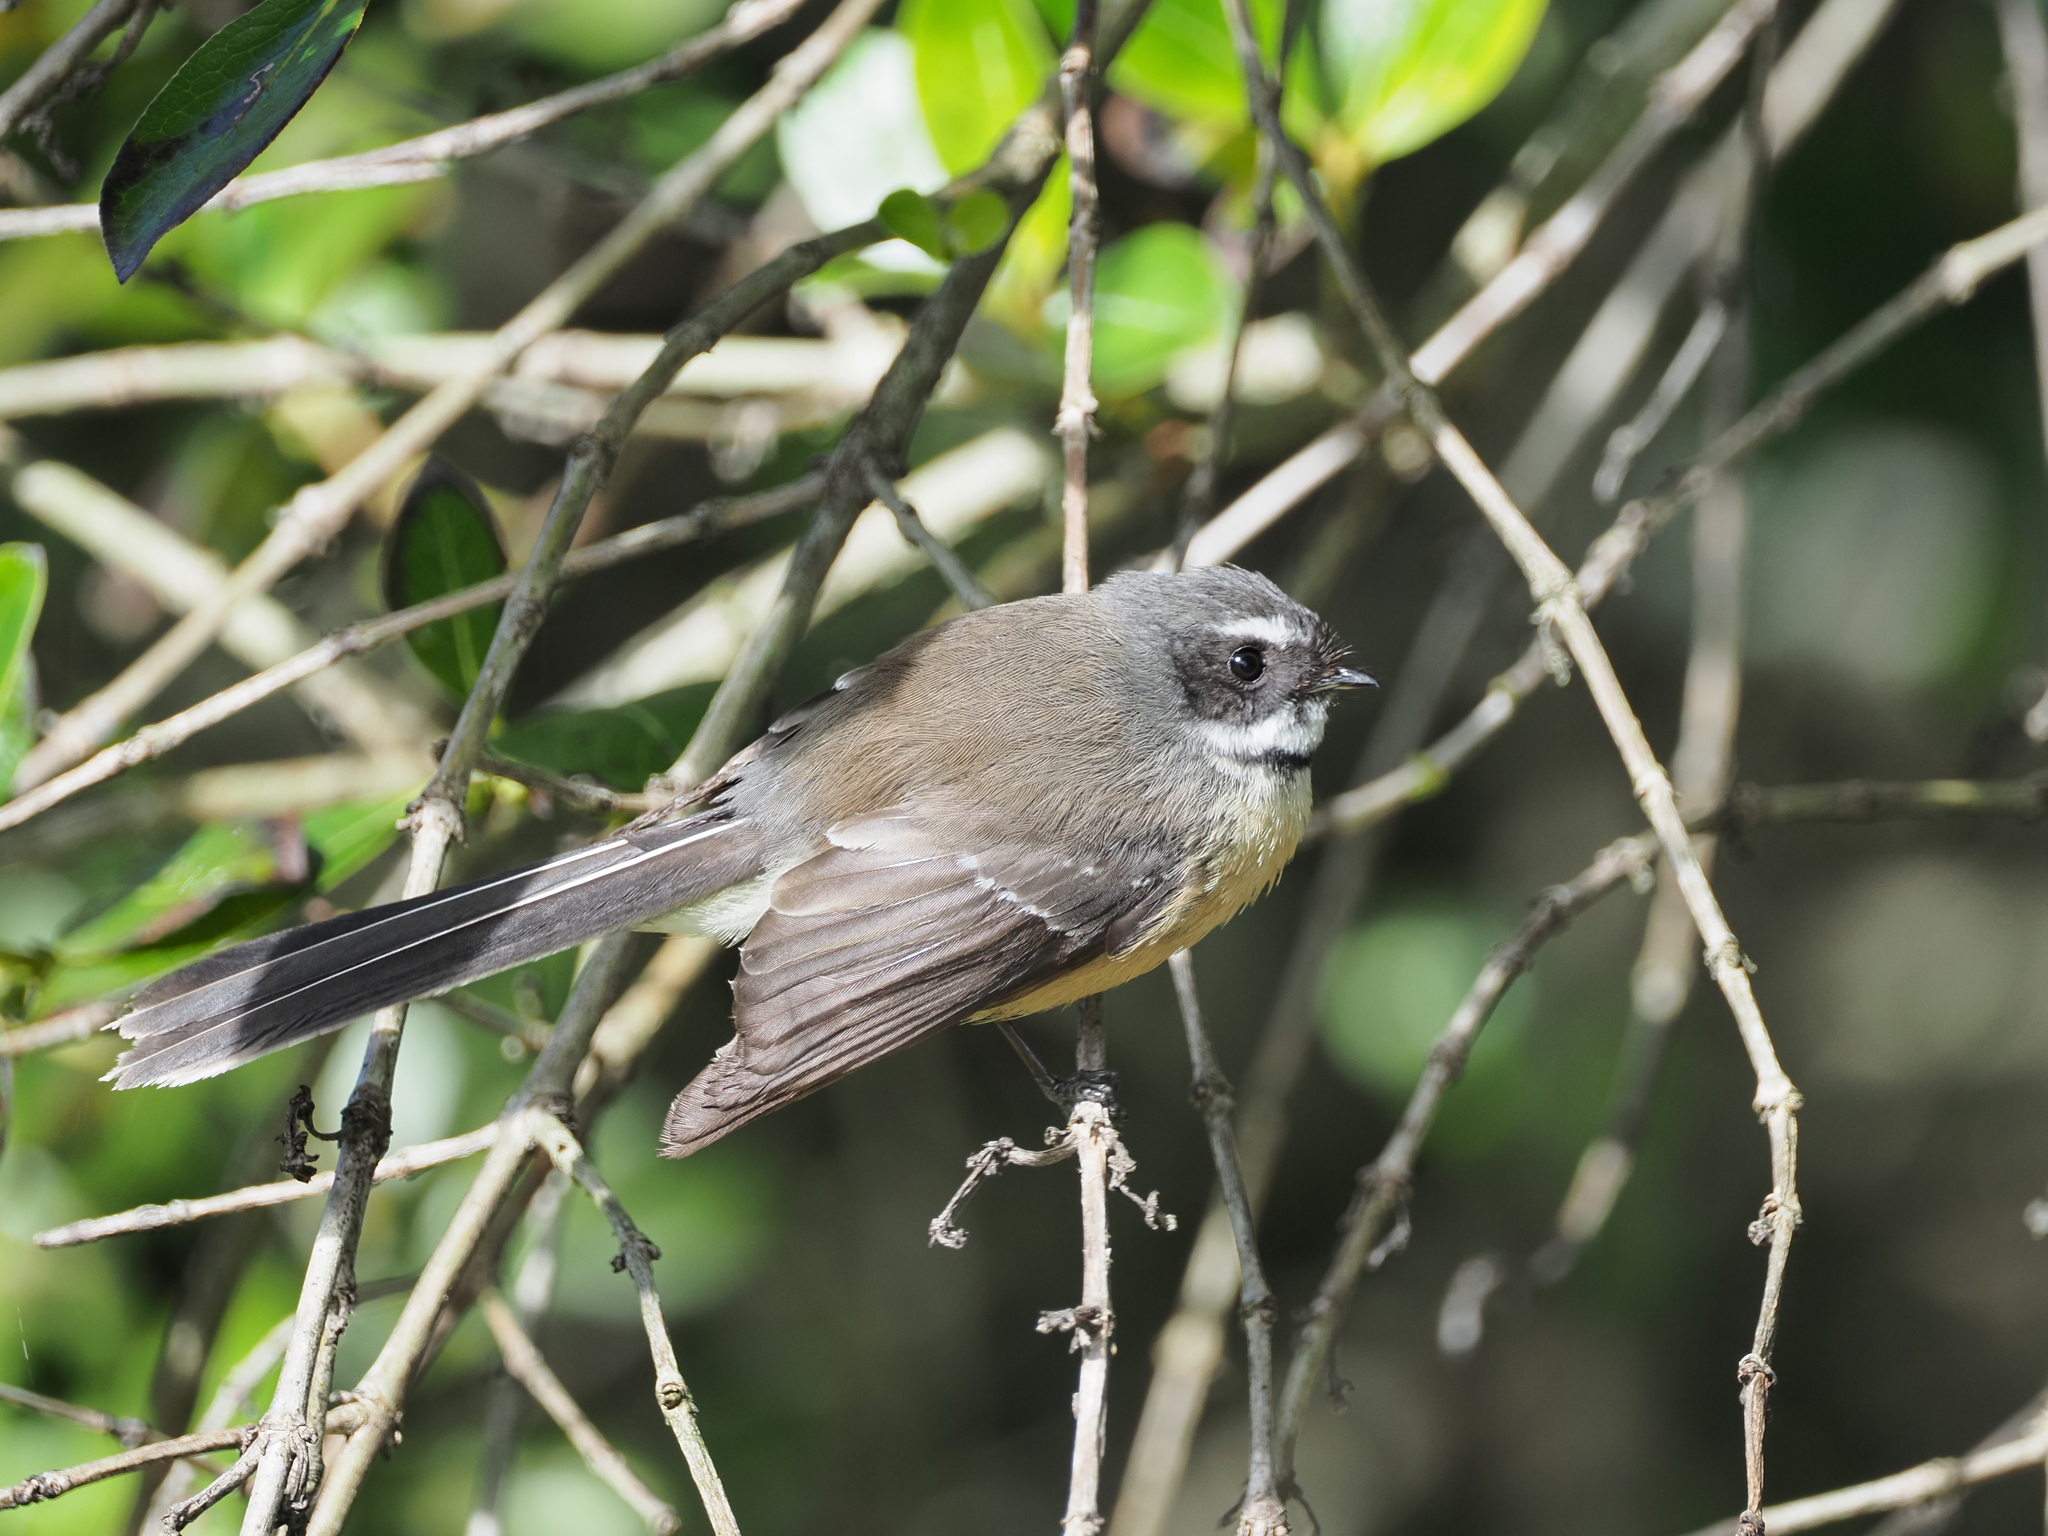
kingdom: Animalia
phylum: Chordata
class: Aves
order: Passeriformes
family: Rhipiduridae
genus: Rhipidura
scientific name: Rhipidura fuliginosa
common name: New zealand fantail
